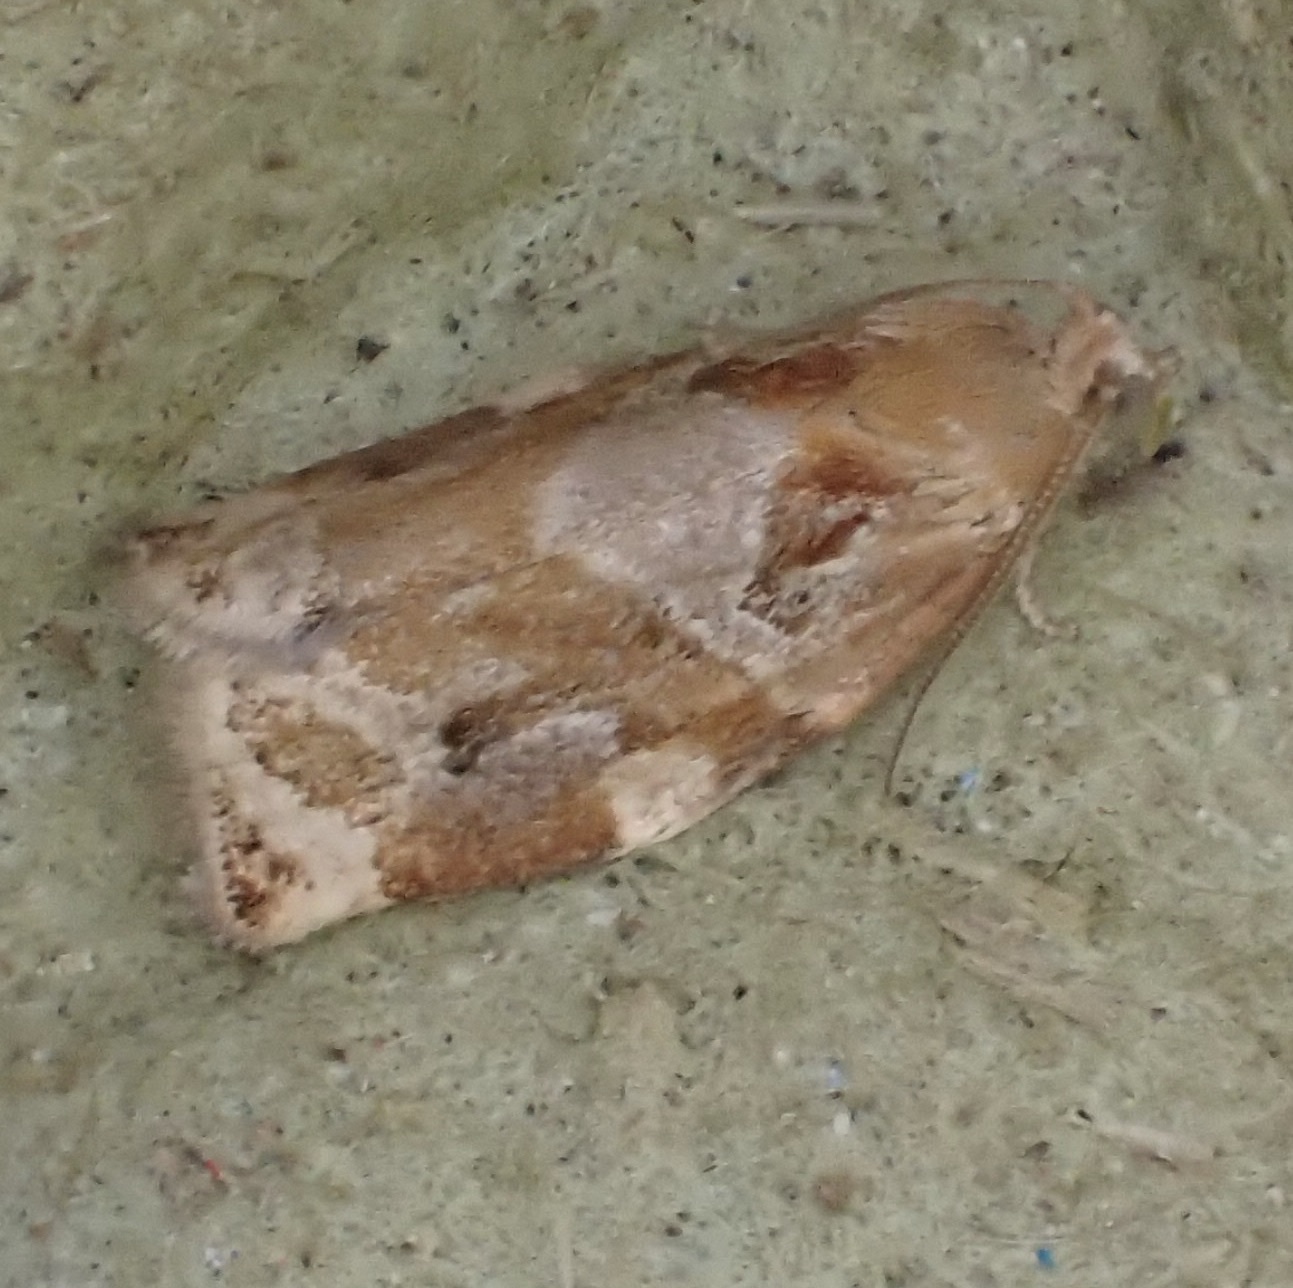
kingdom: Animalia
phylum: Arthropoda
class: Insecta
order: Lepidoptera
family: Tortricidae
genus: Archips
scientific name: Archips xylosteana
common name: Variegated golden tortrix
